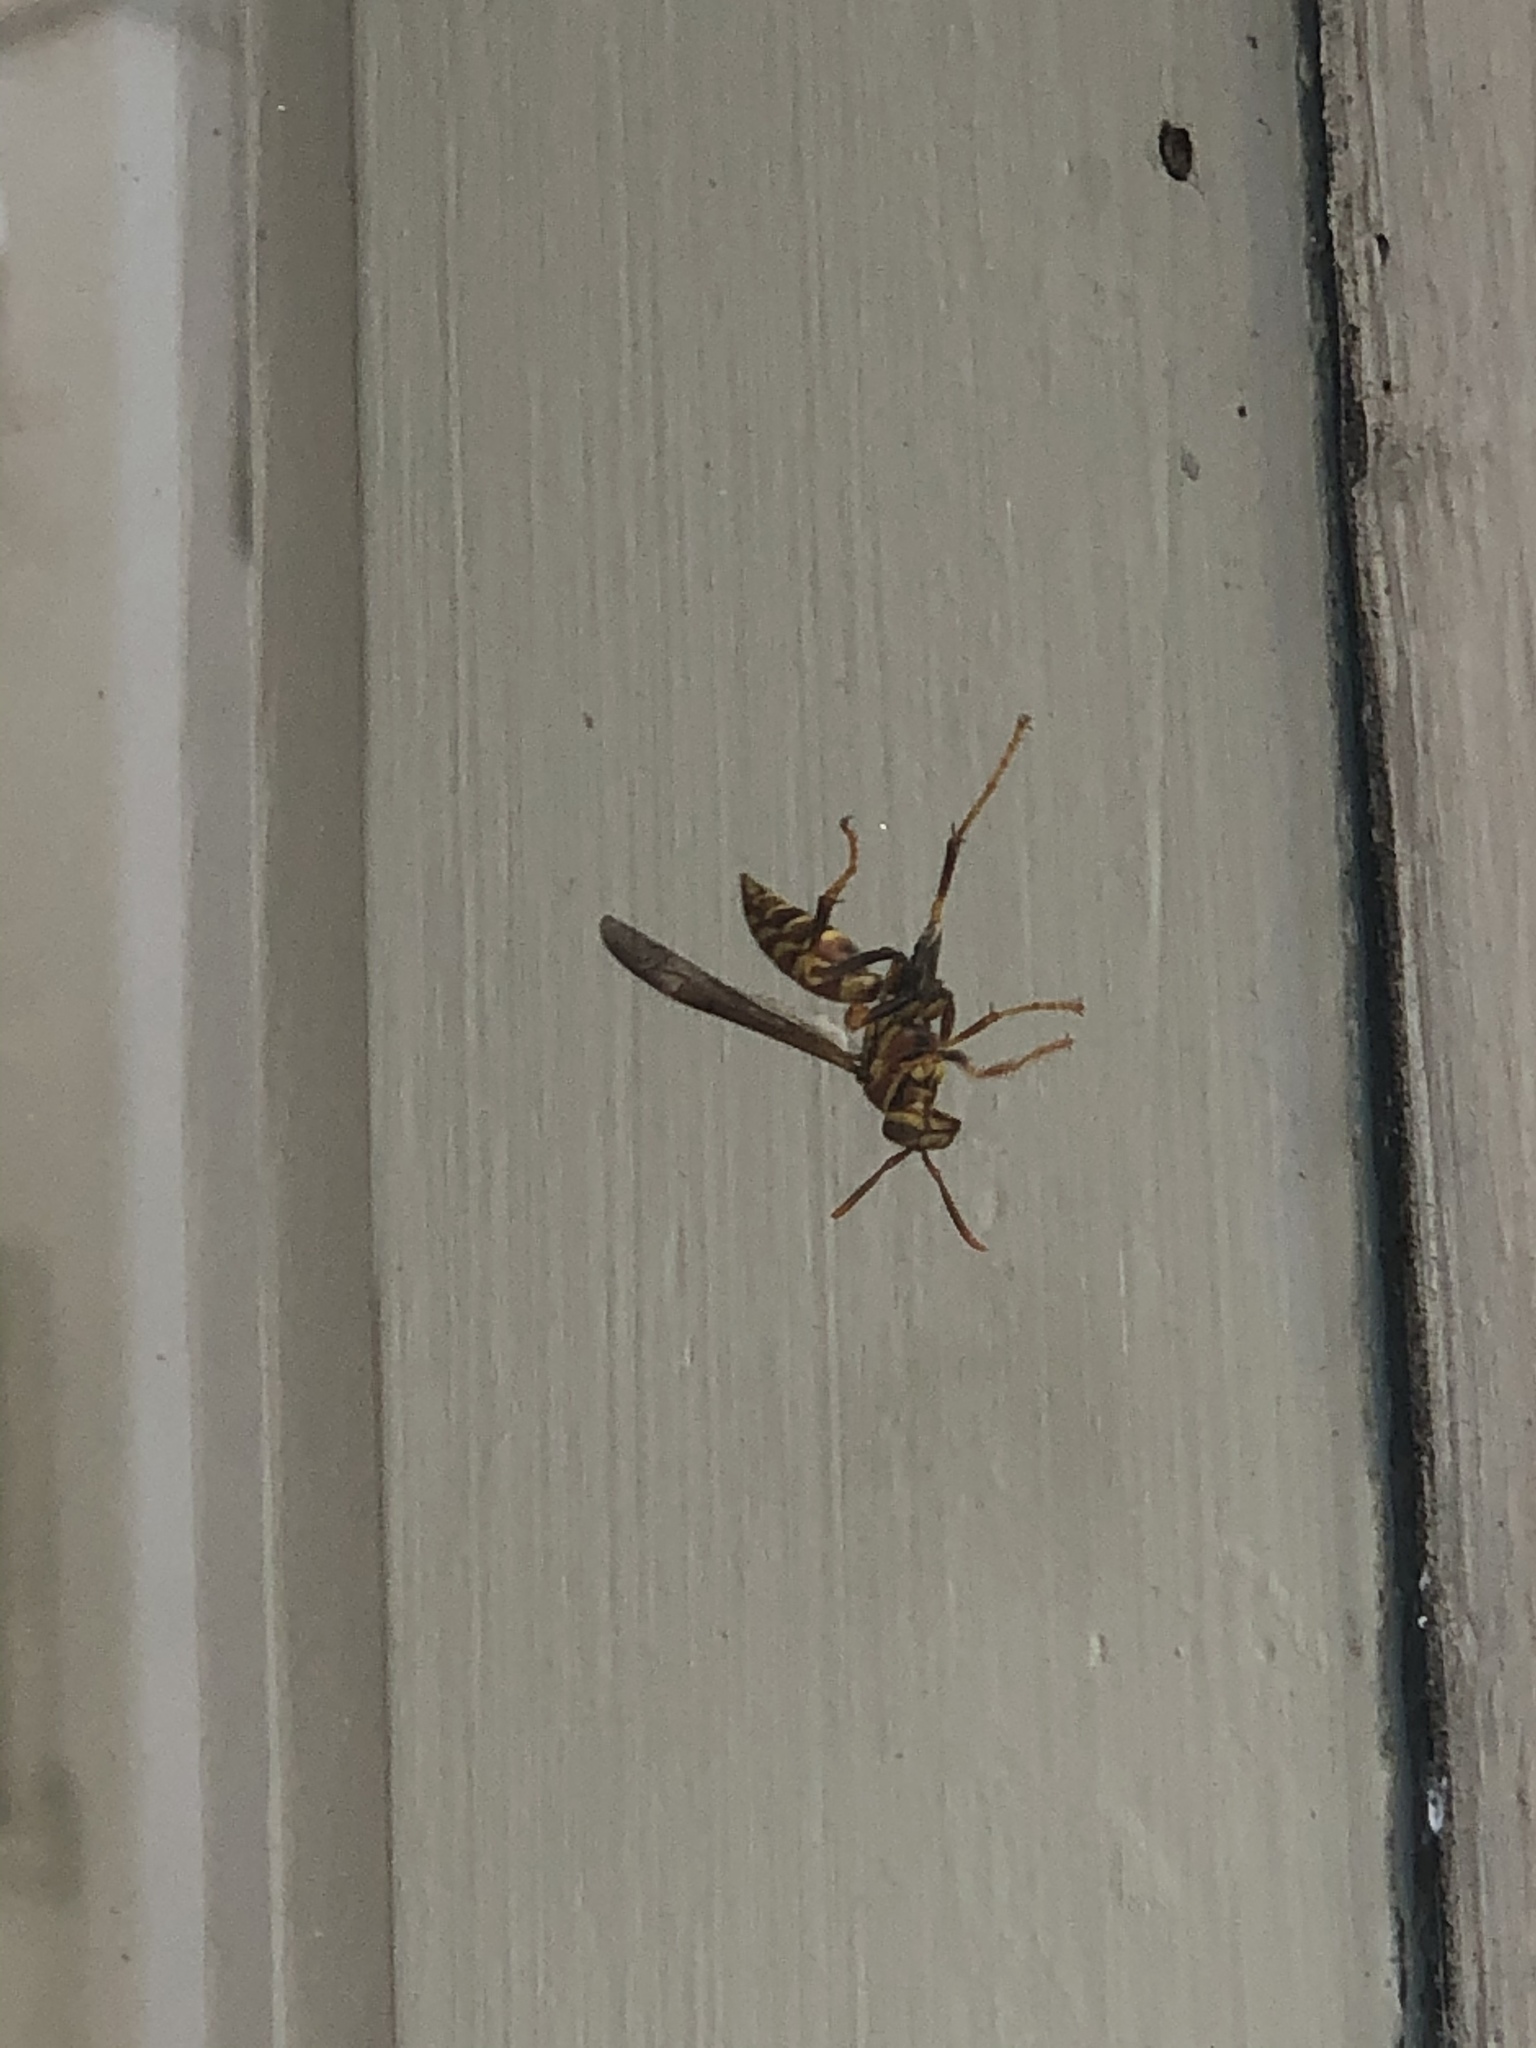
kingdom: Animalia
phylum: Arthropoda
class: Insecta
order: Hymenoptera
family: Eumenidae
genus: Polistes
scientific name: Polistes exclamans
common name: Paper wasp
